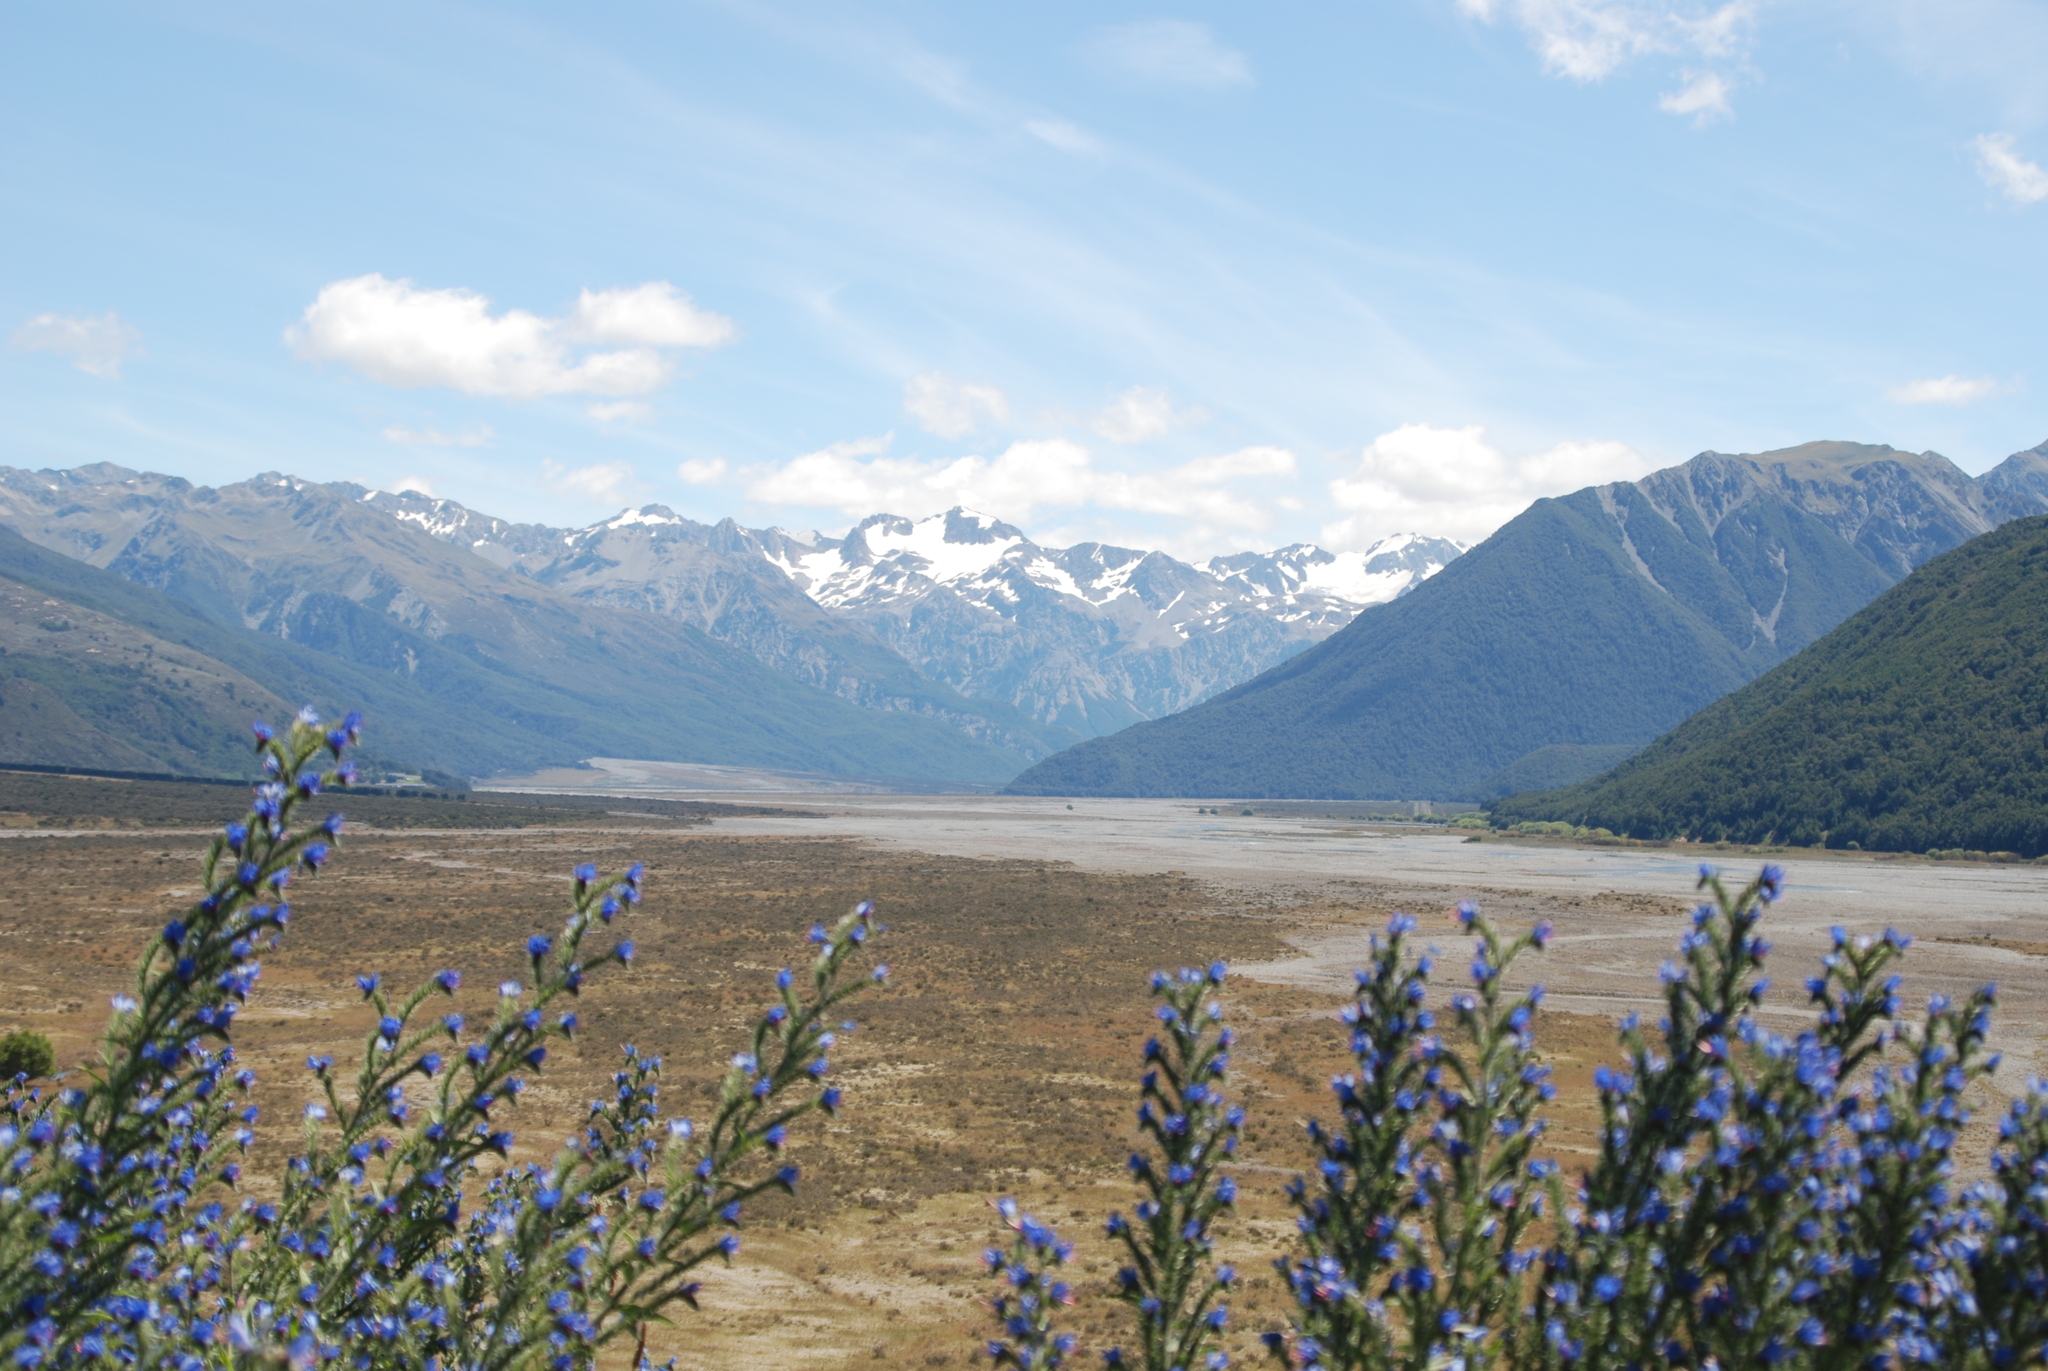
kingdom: Plantae
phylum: Tracheophyta
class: Magnoliopsida
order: Boraginales
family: Boraginaceae
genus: Echium
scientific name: Echium vulgare
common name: Common viper's bugloss
